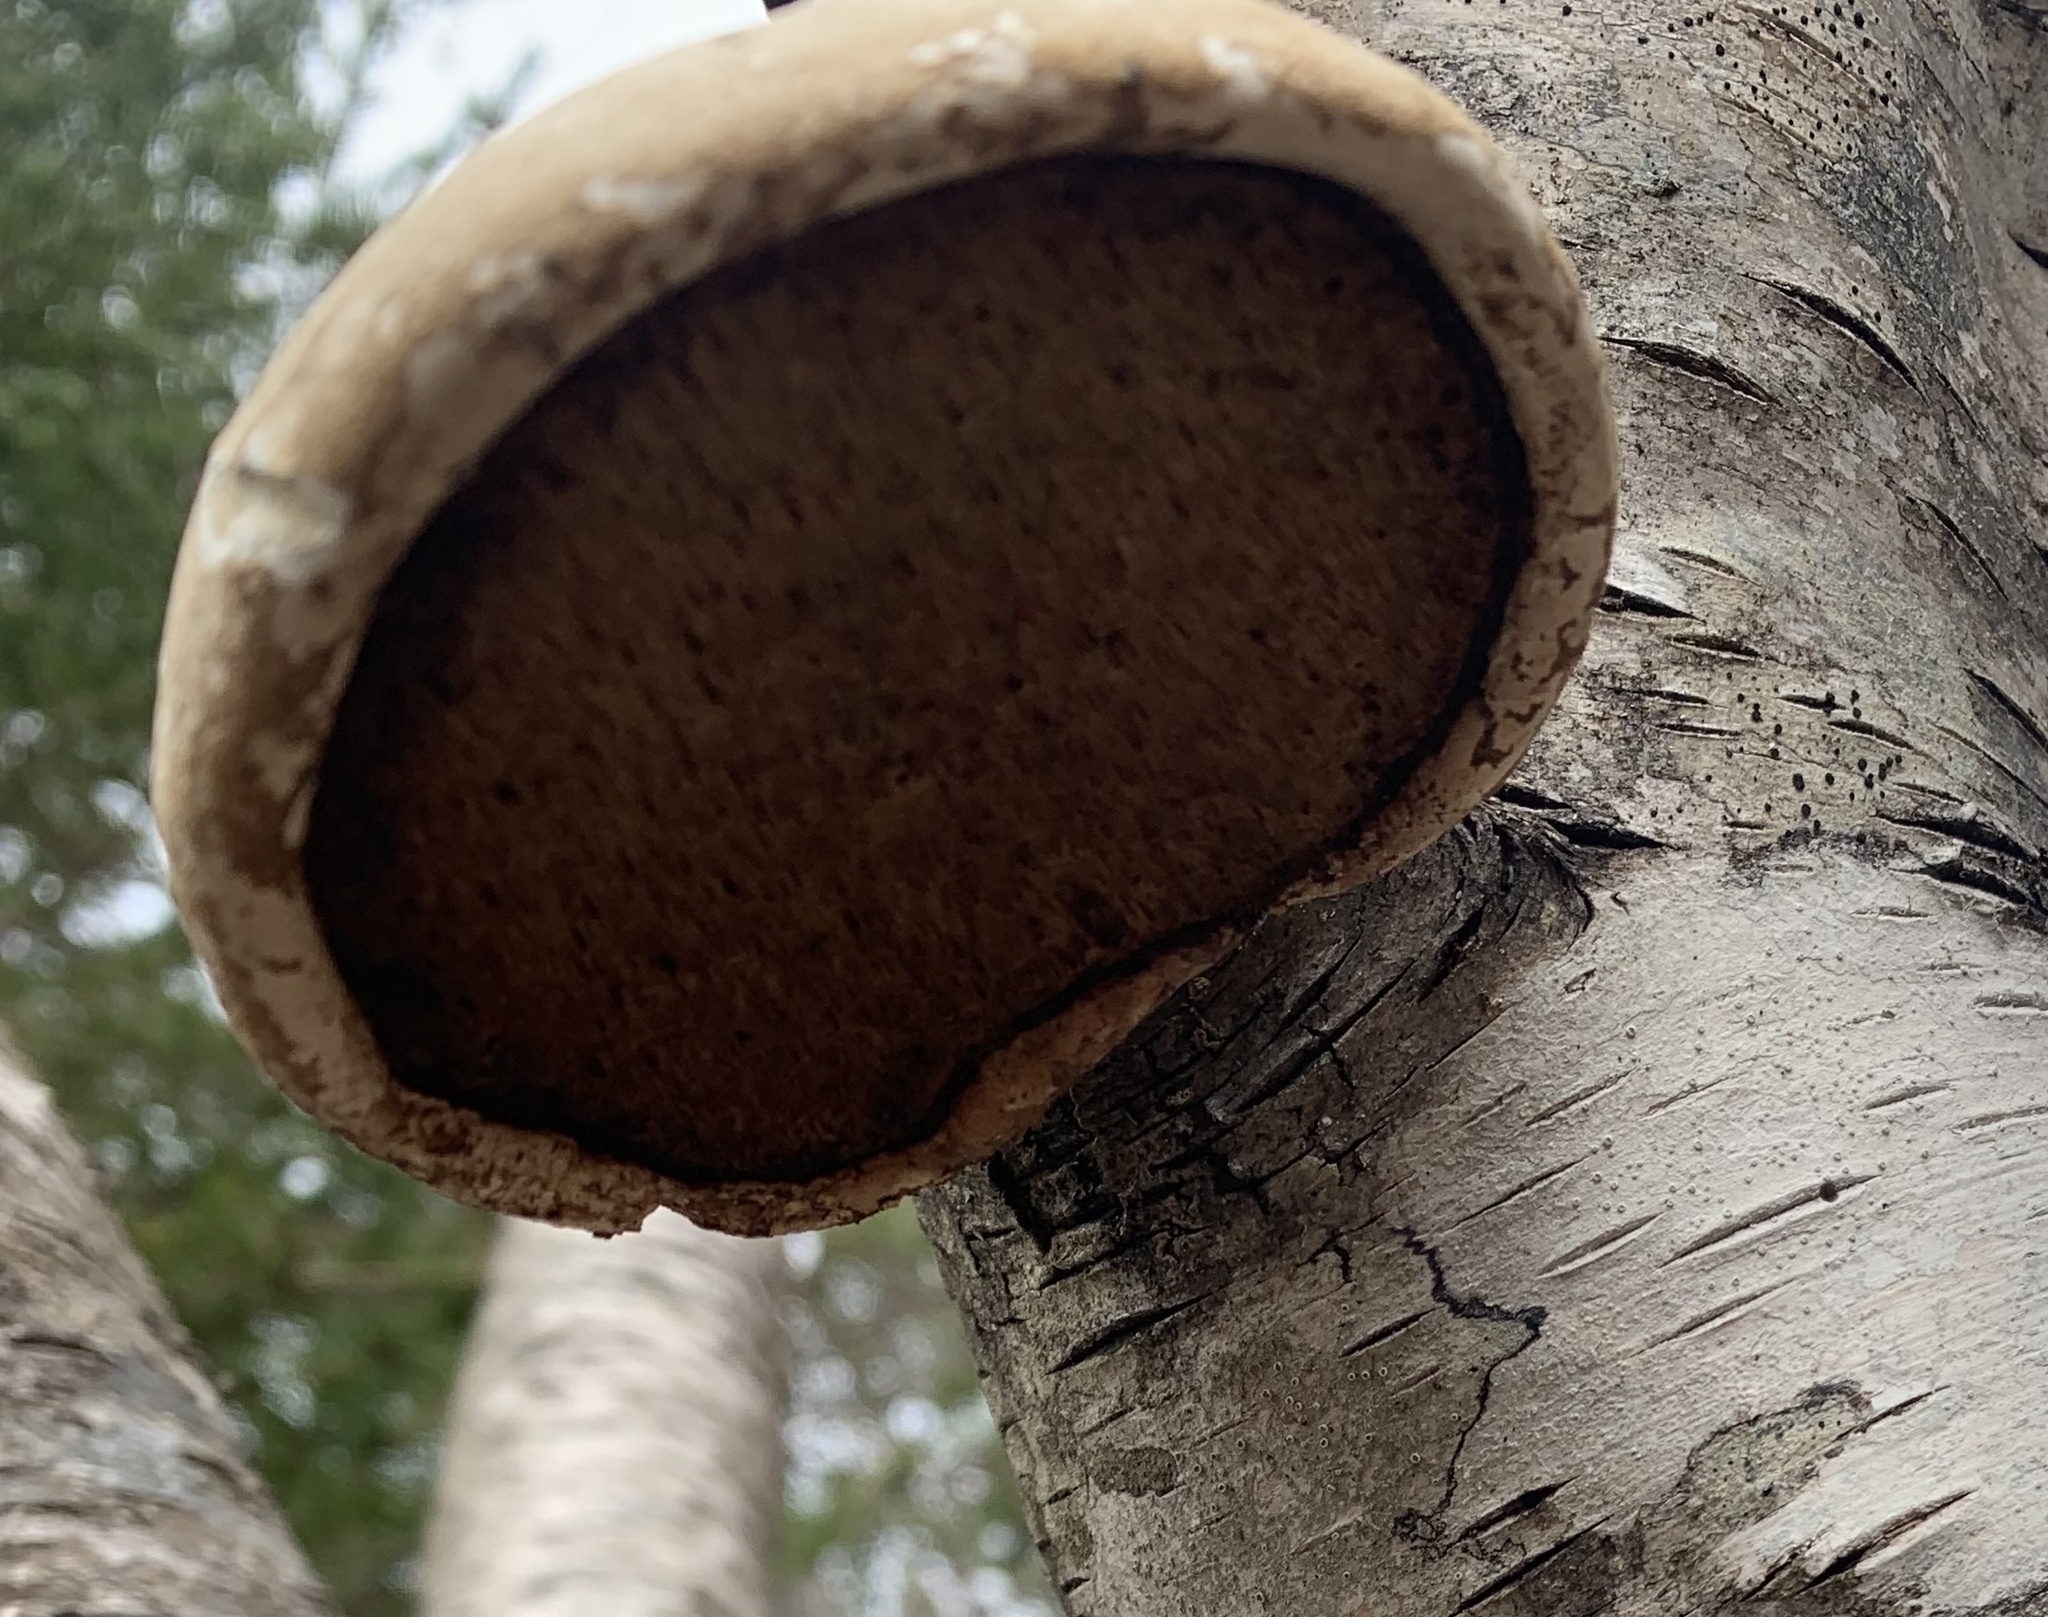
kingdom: Fungi
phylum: Basidiomycota
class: Agaricomycetes
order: Polyporales
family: Fomitopsidaceae
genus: Fomitopsis
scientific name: Fomitopsis betulina
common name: Birch polypore
